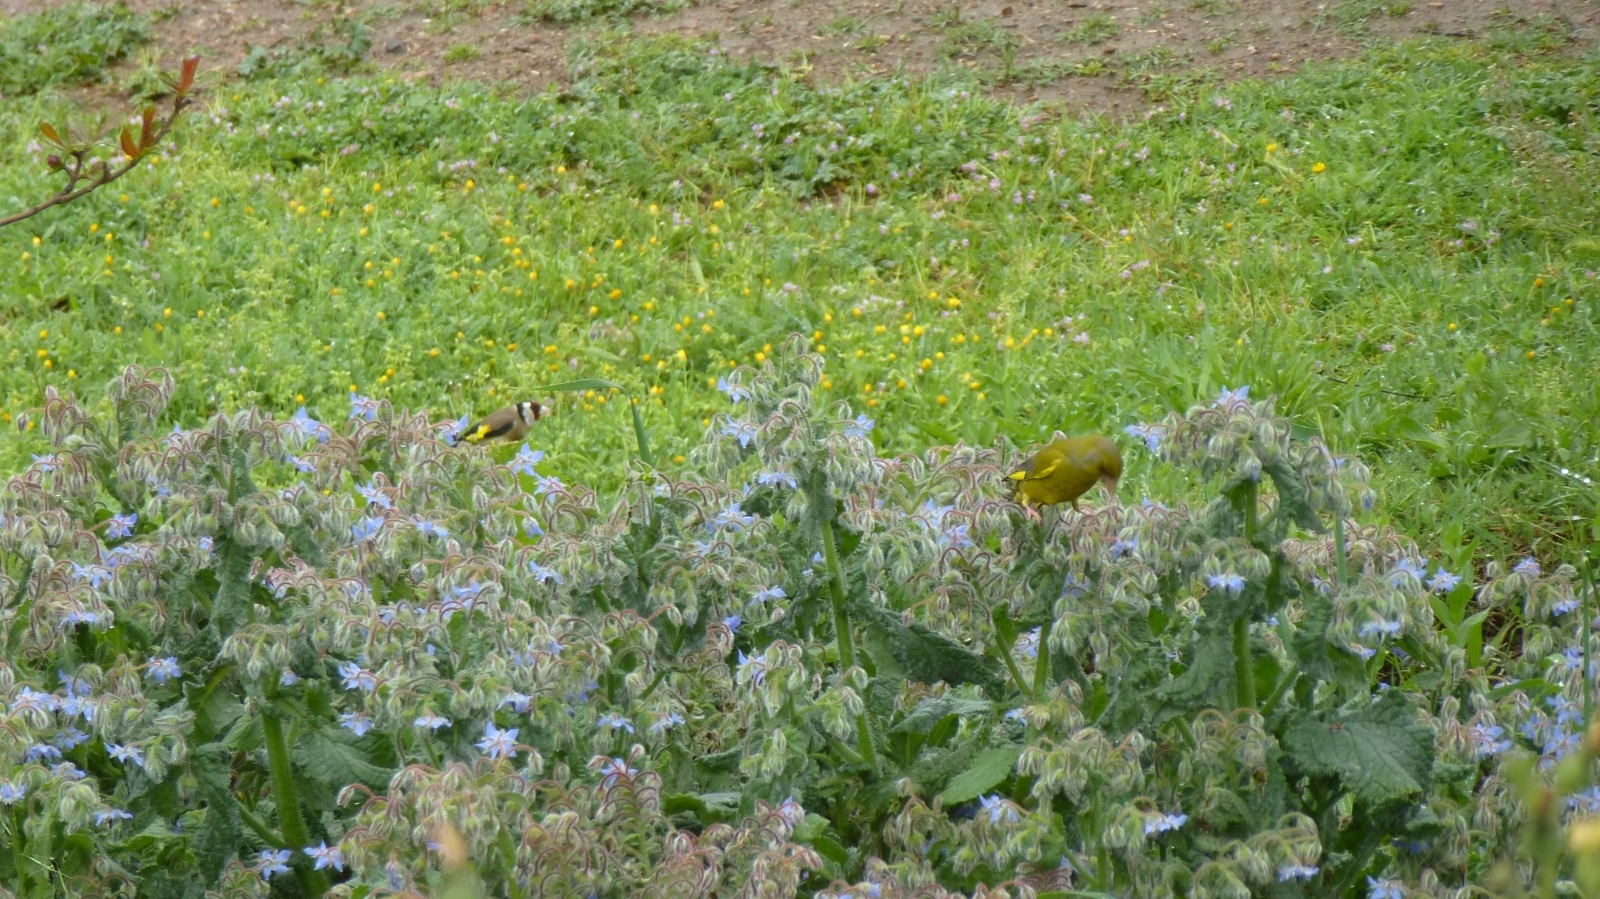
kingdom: Animalia
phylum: Chordata
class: Aves
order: Passeriformes
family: Fringillidae
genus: Carduelis
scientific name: Carduelis carduelis
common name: European goldfinch
